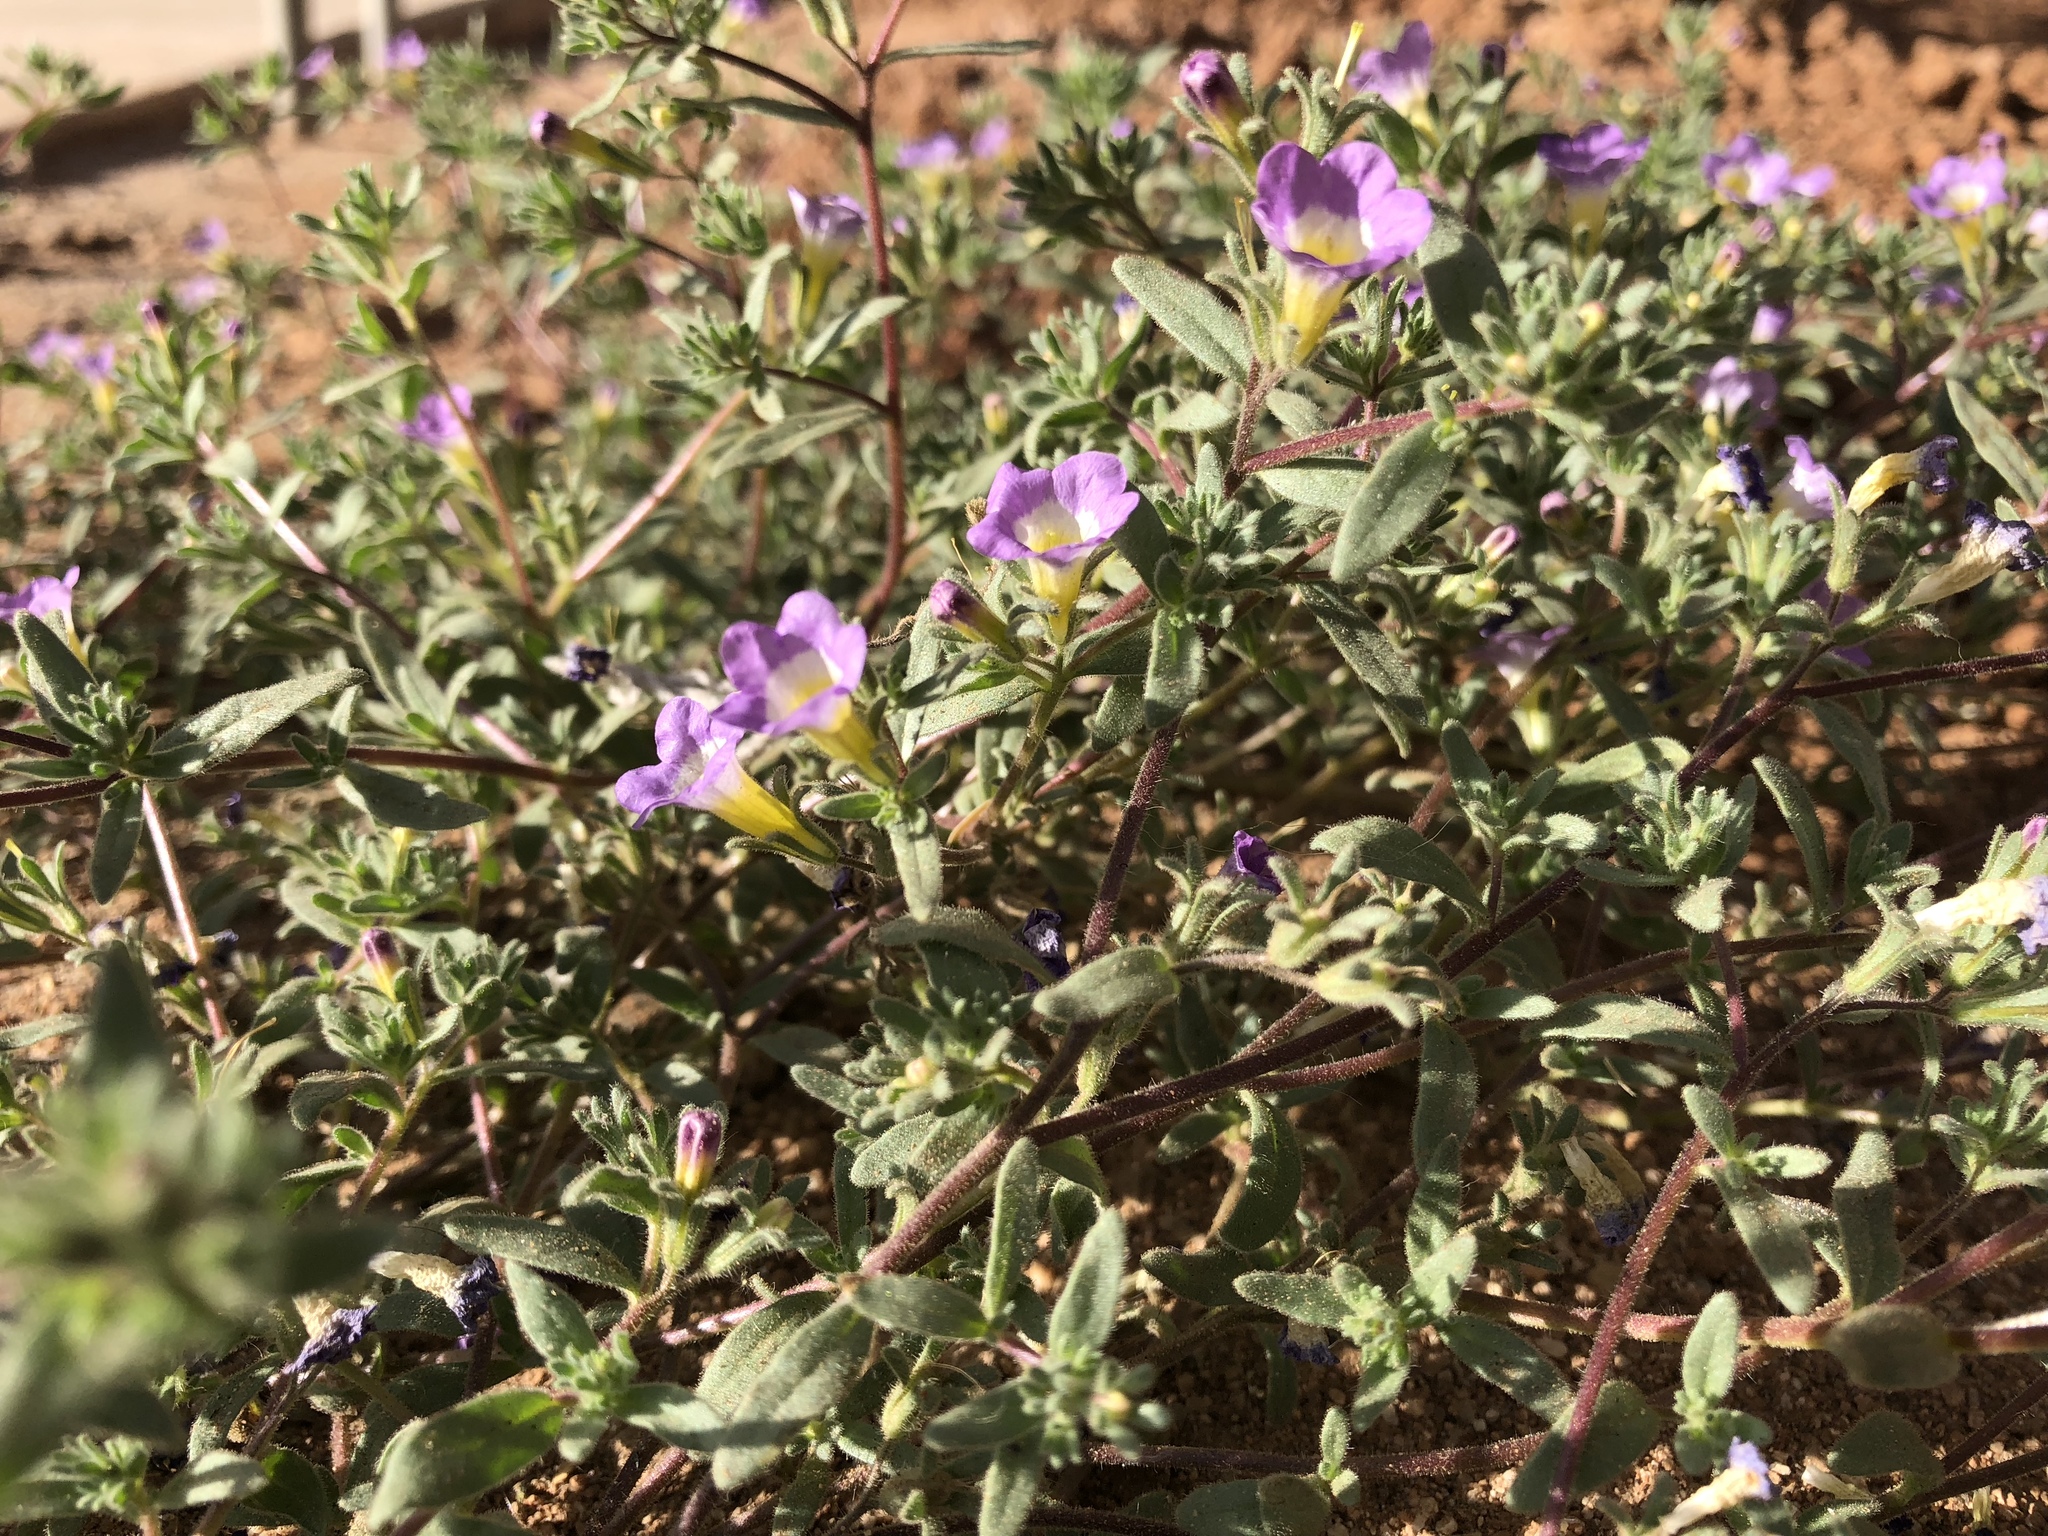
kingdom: Plantae
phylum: Tracheophyta
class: Magnoliopsida
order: Boraginales
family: Namaceae
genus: Nama
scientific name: Nama hispida
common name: Bristly nama
